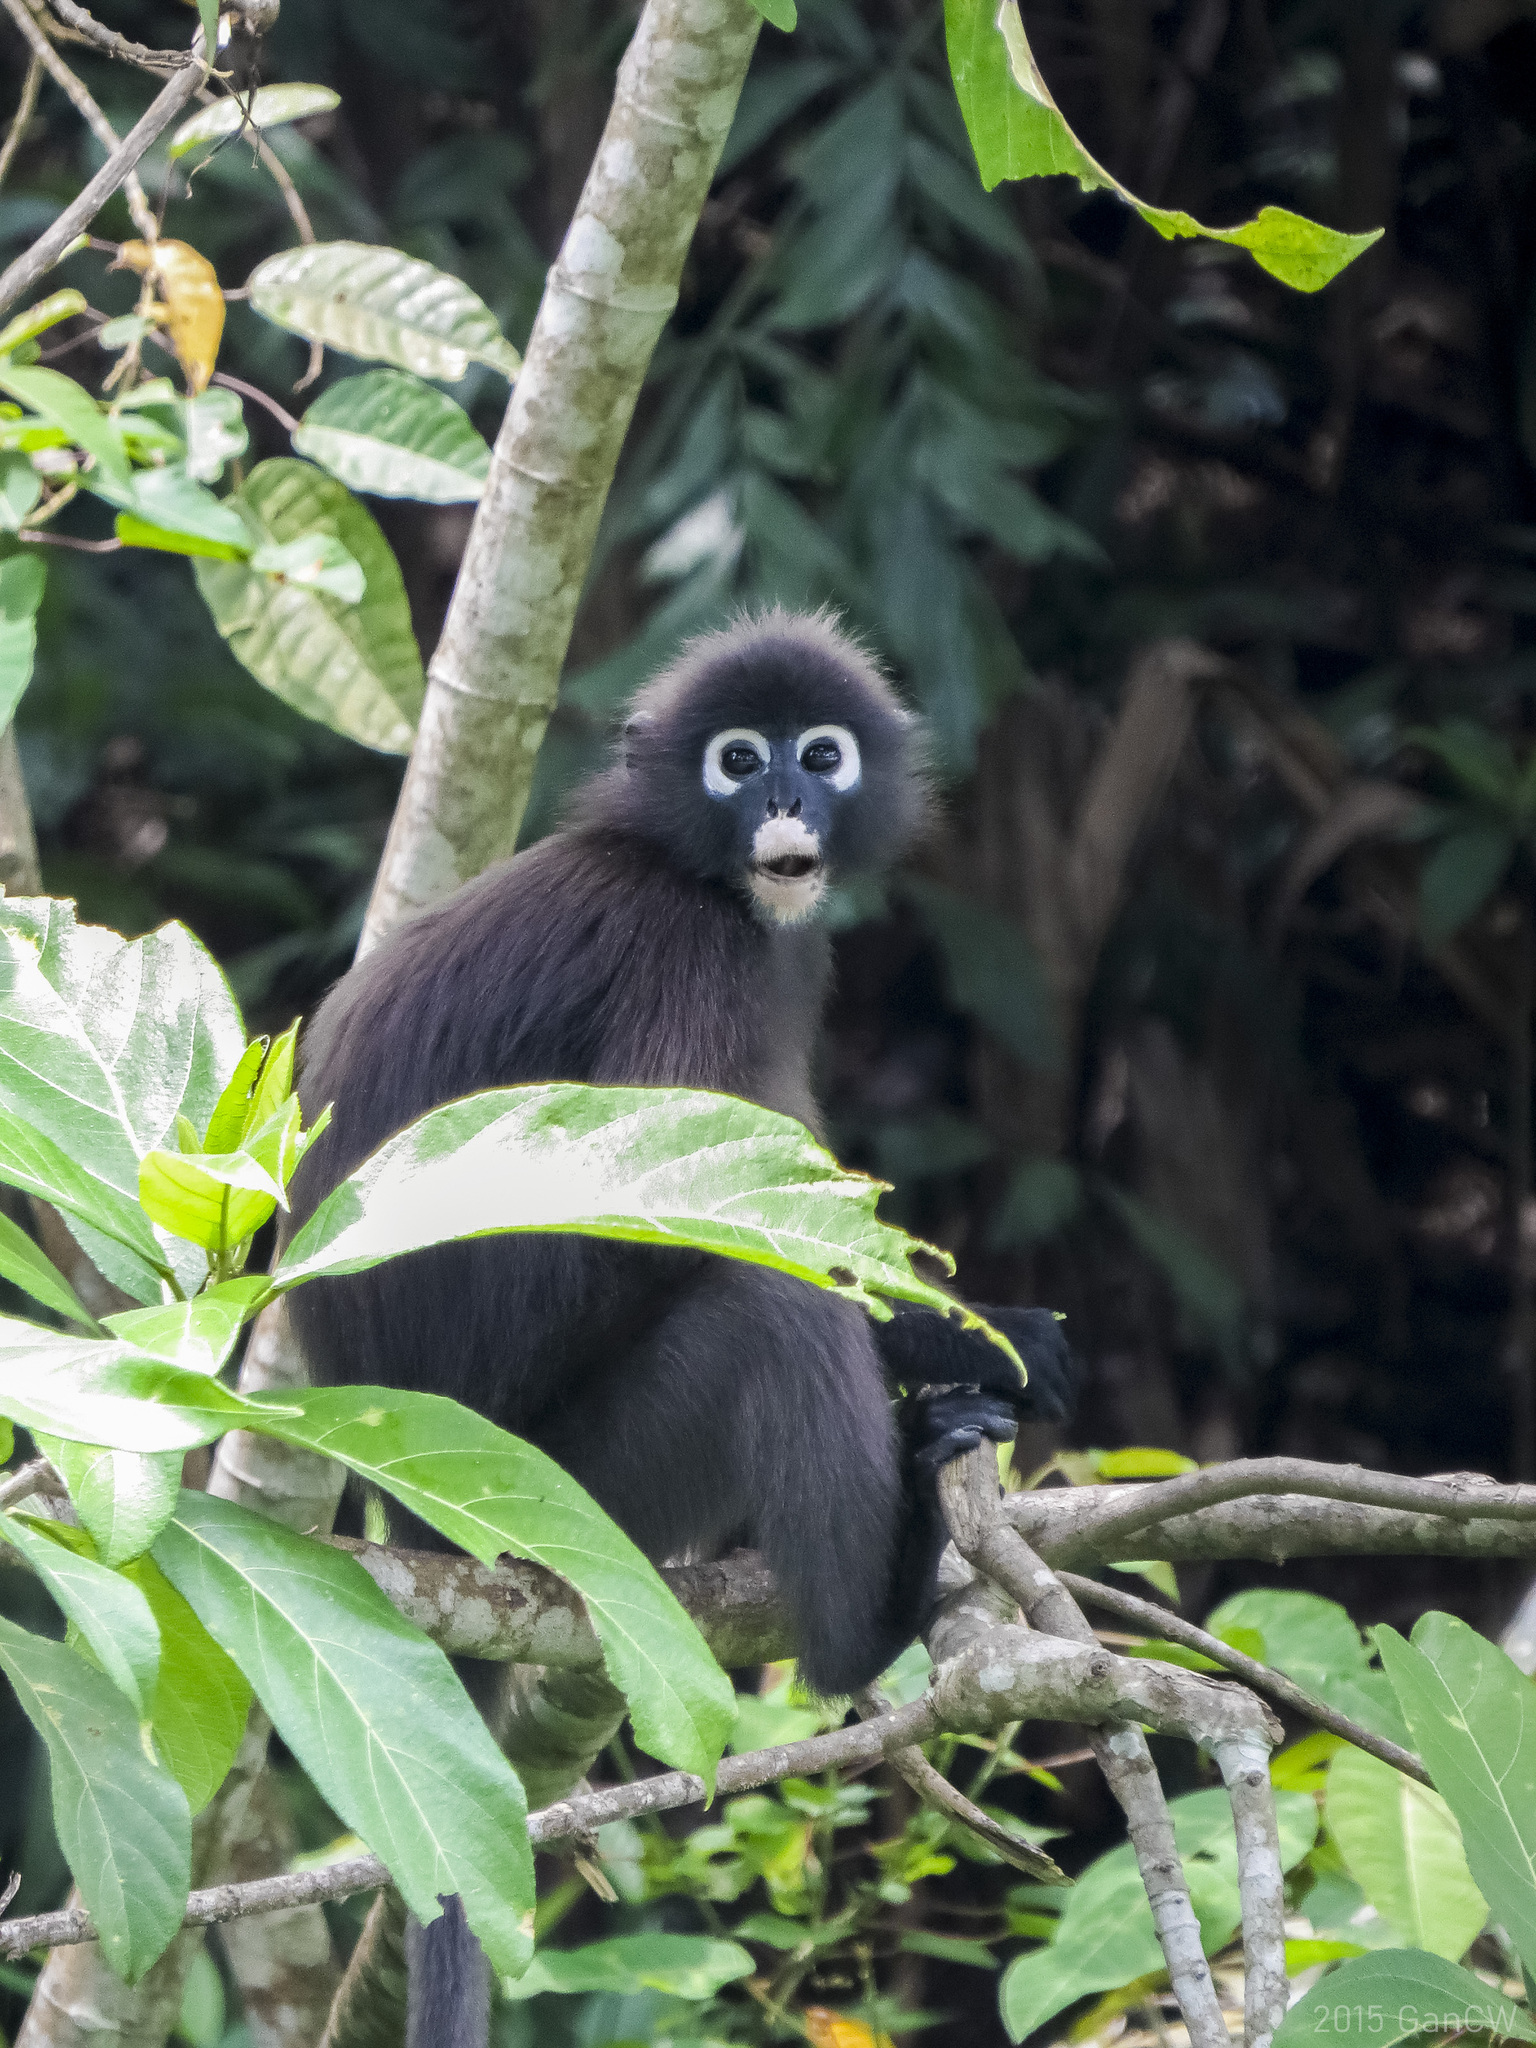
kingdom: Animalia
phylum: Chordata
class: Mammalia
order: Primates
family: Cercopithecidae
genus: Trachypithecus
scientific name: Trachypithecus obscurus
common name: Dusky leaf-monkey
